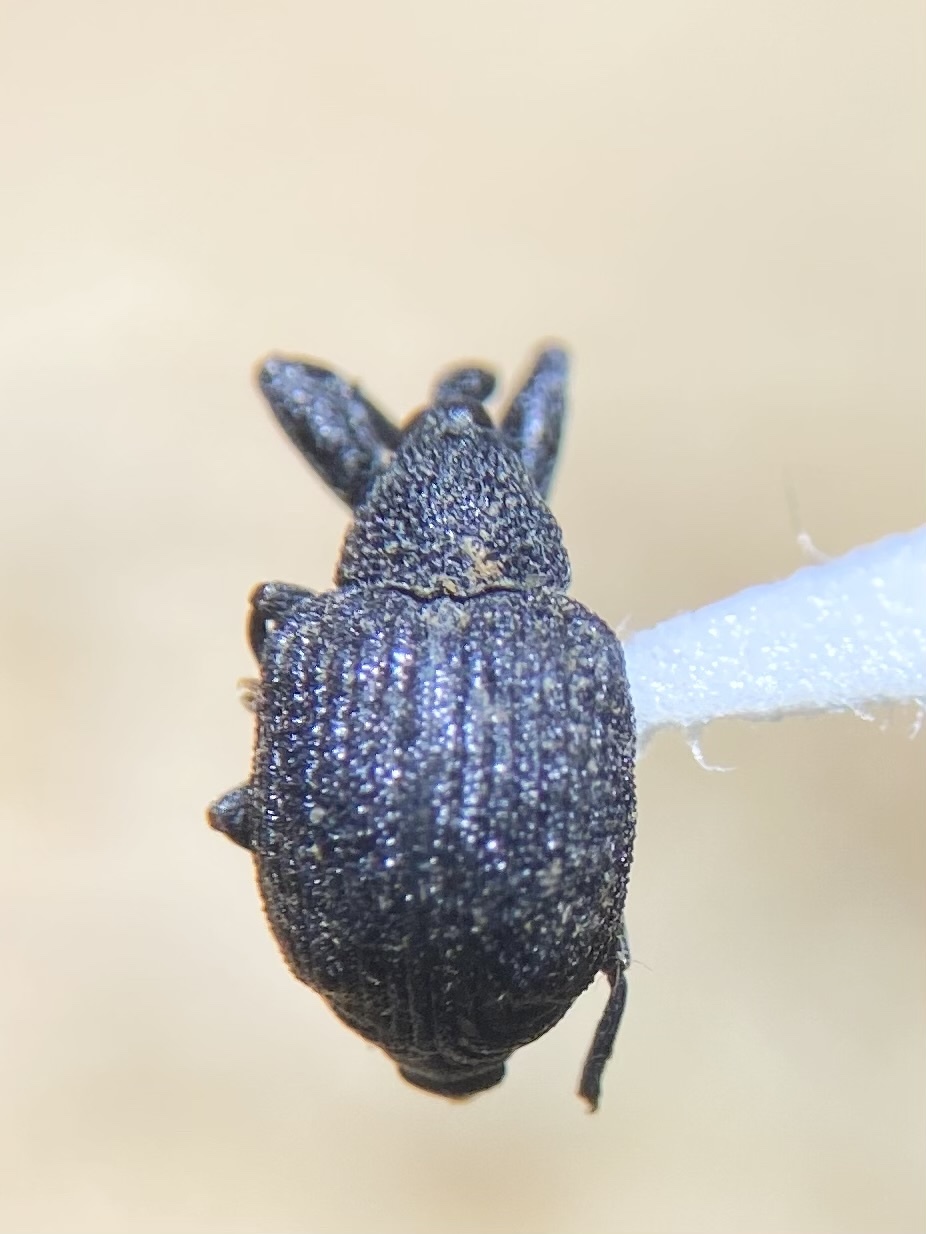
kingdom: Animalia
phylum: Arthropoda
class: Insecta
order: Coleoptera
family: Curculionidae
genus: Odontopus
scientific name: Odontopus calceatus
